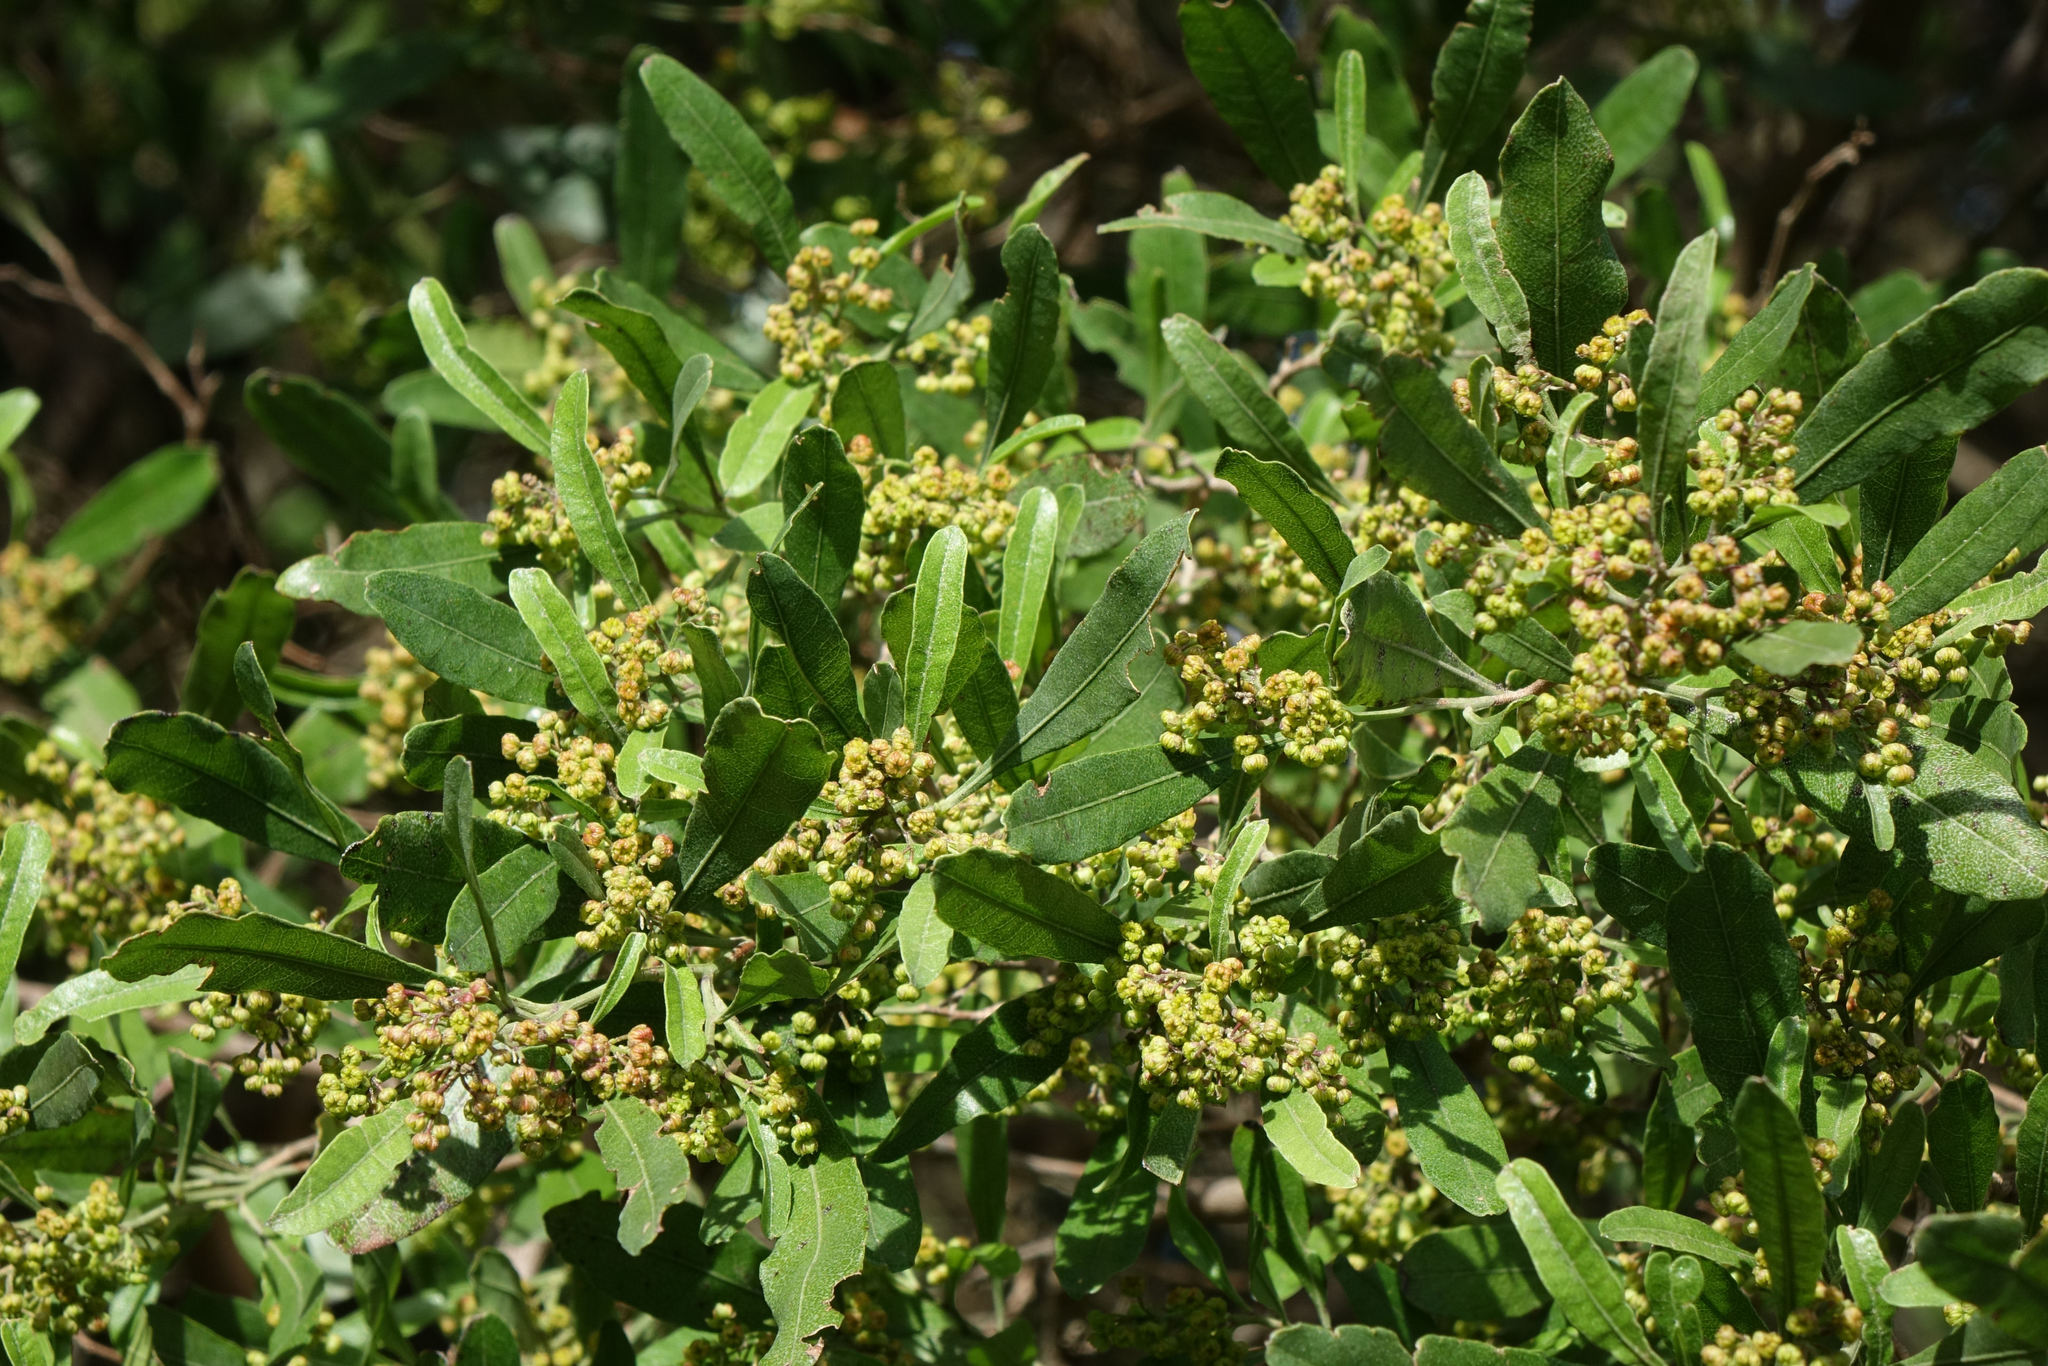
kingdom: Plantae
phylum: Tracheophyta
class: Magnoliopsida
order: Sapindales
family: Sapindaceae
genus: Dodonaea
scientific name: Dodonaea viscosa
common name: Hopbush
